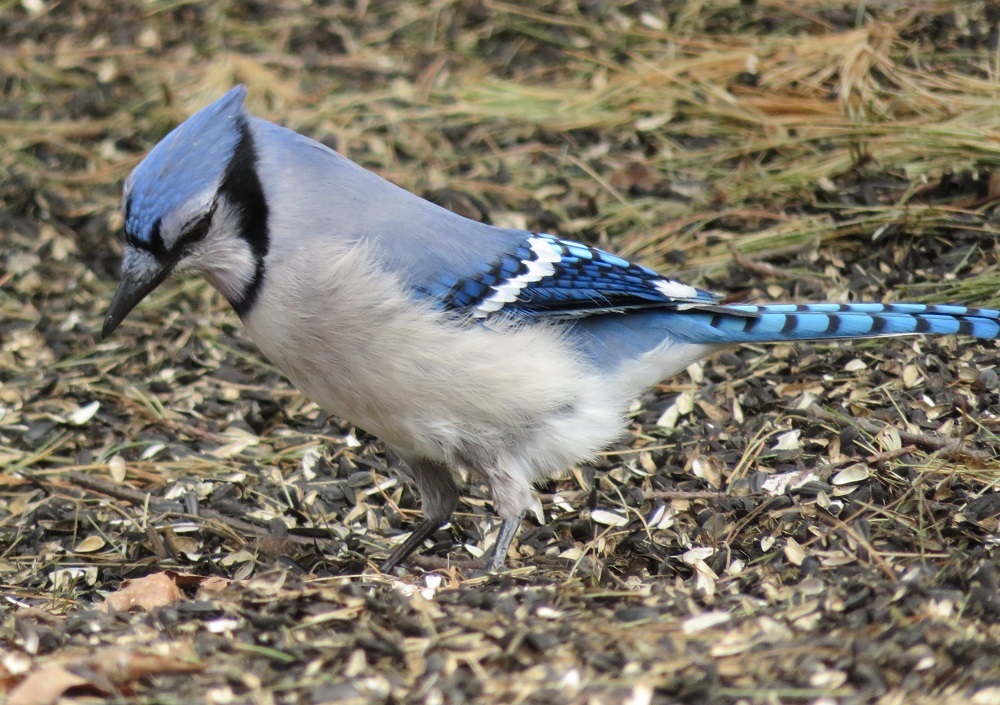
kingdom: Animalia
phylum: Chordata
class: Aves
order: Passeriformes
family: Corvidae
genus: Cyanocitta
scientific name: Cyanocitta cristata
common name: Blue jay
